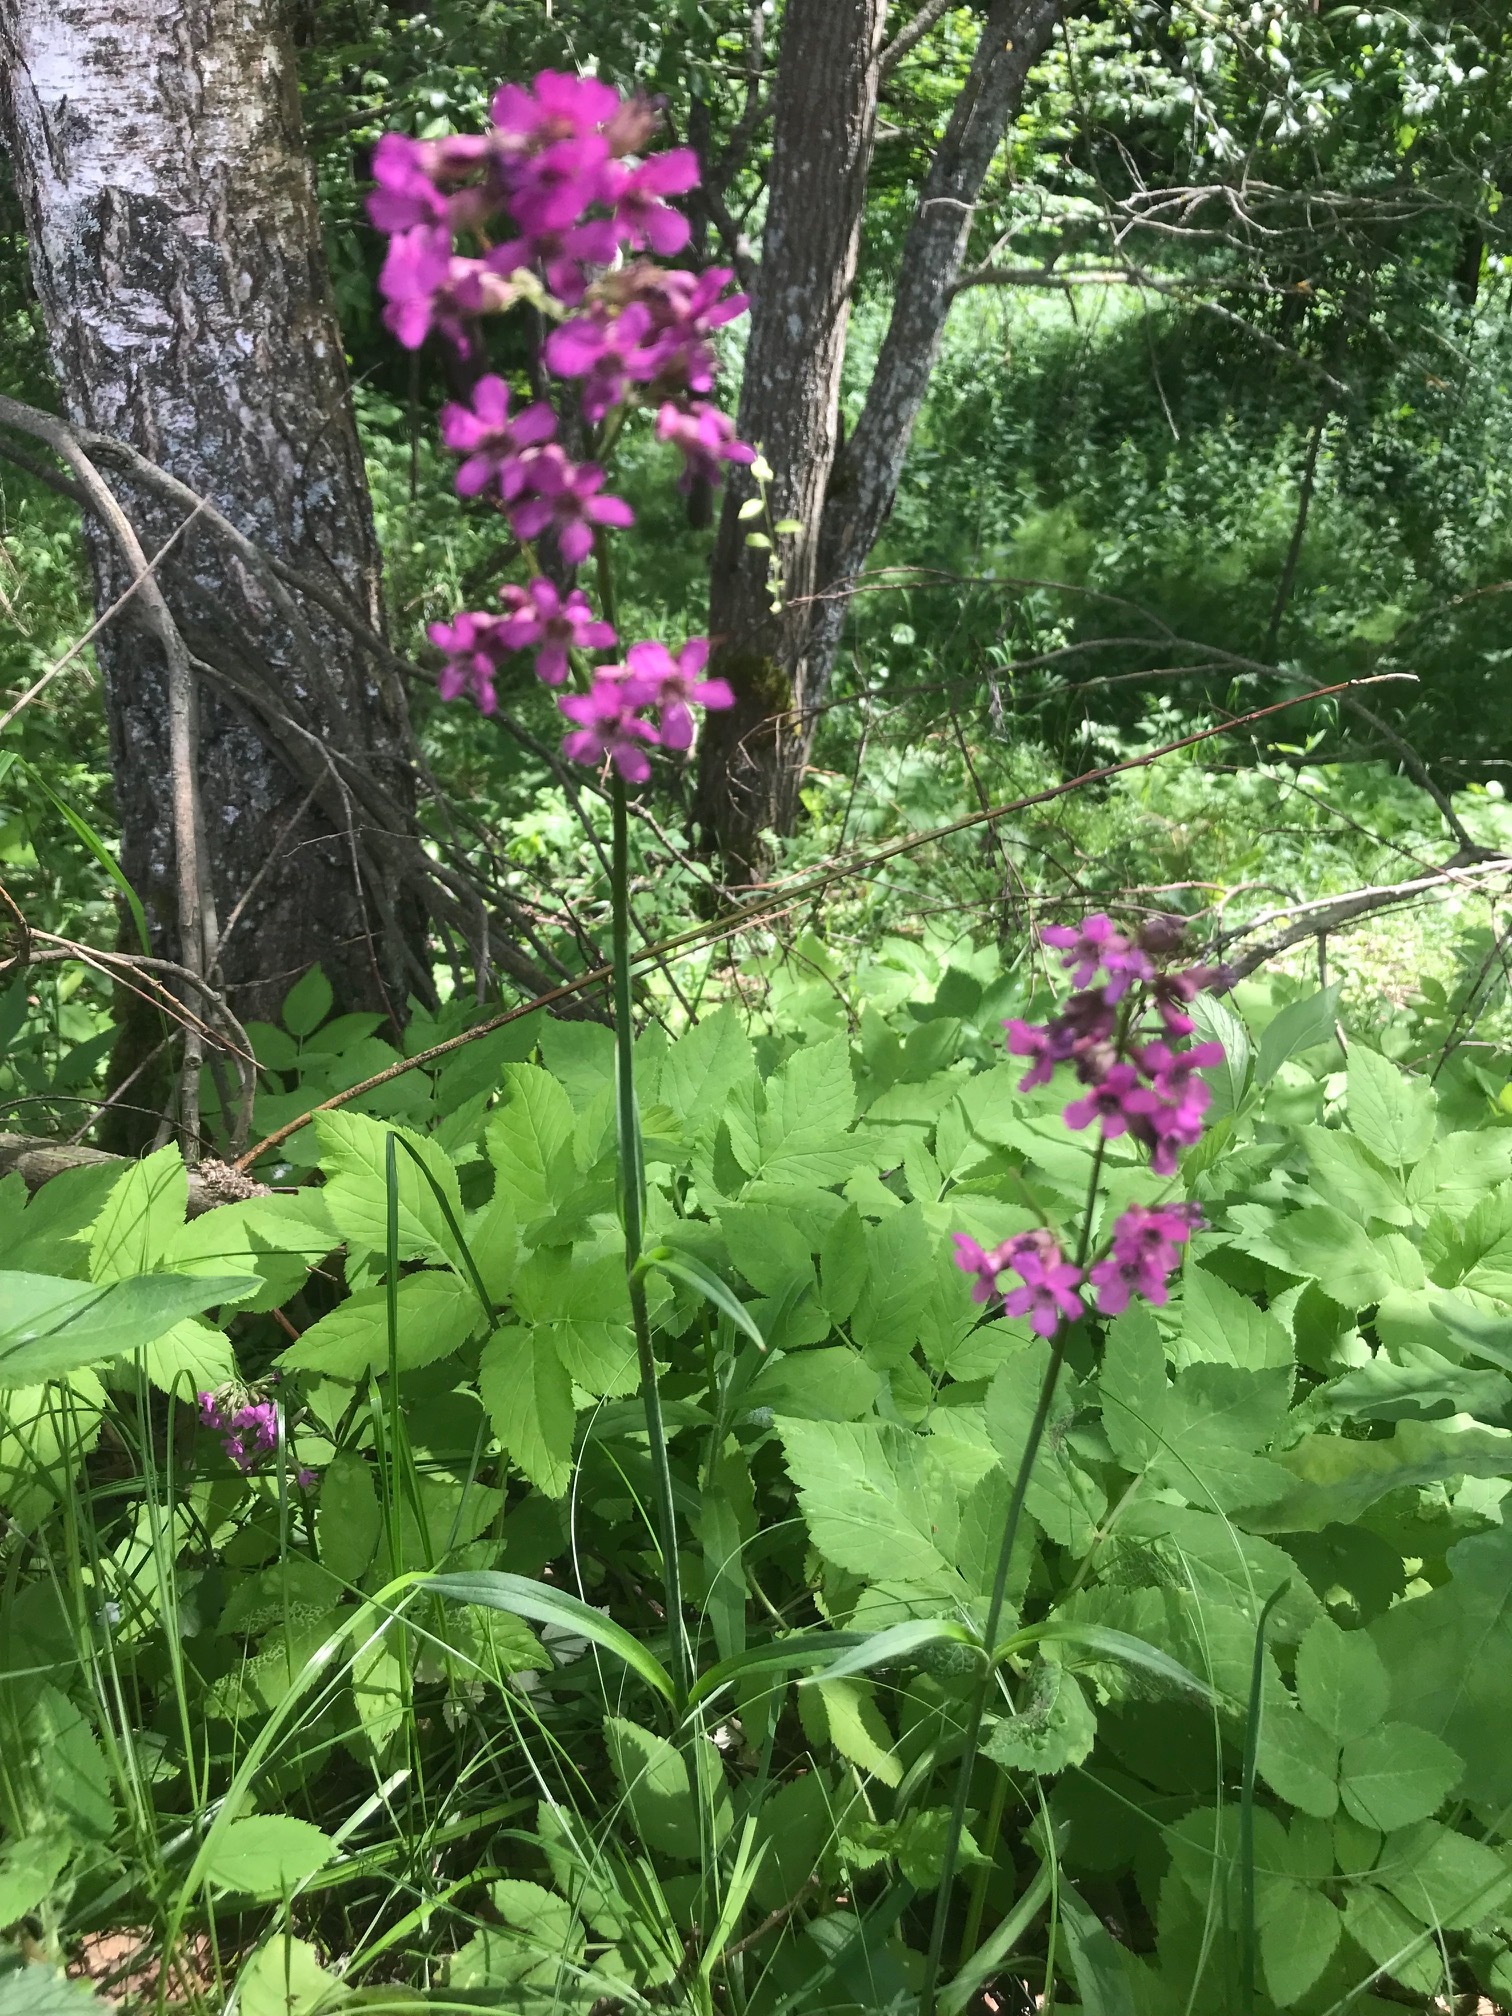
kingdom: Plantae
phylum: Tracheophyta
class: Magnoliopsida
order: Caryophyllales
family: Caryophyllaceae
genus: Viscaria
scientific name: Viscaria vulgaris
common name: Clammy campion
